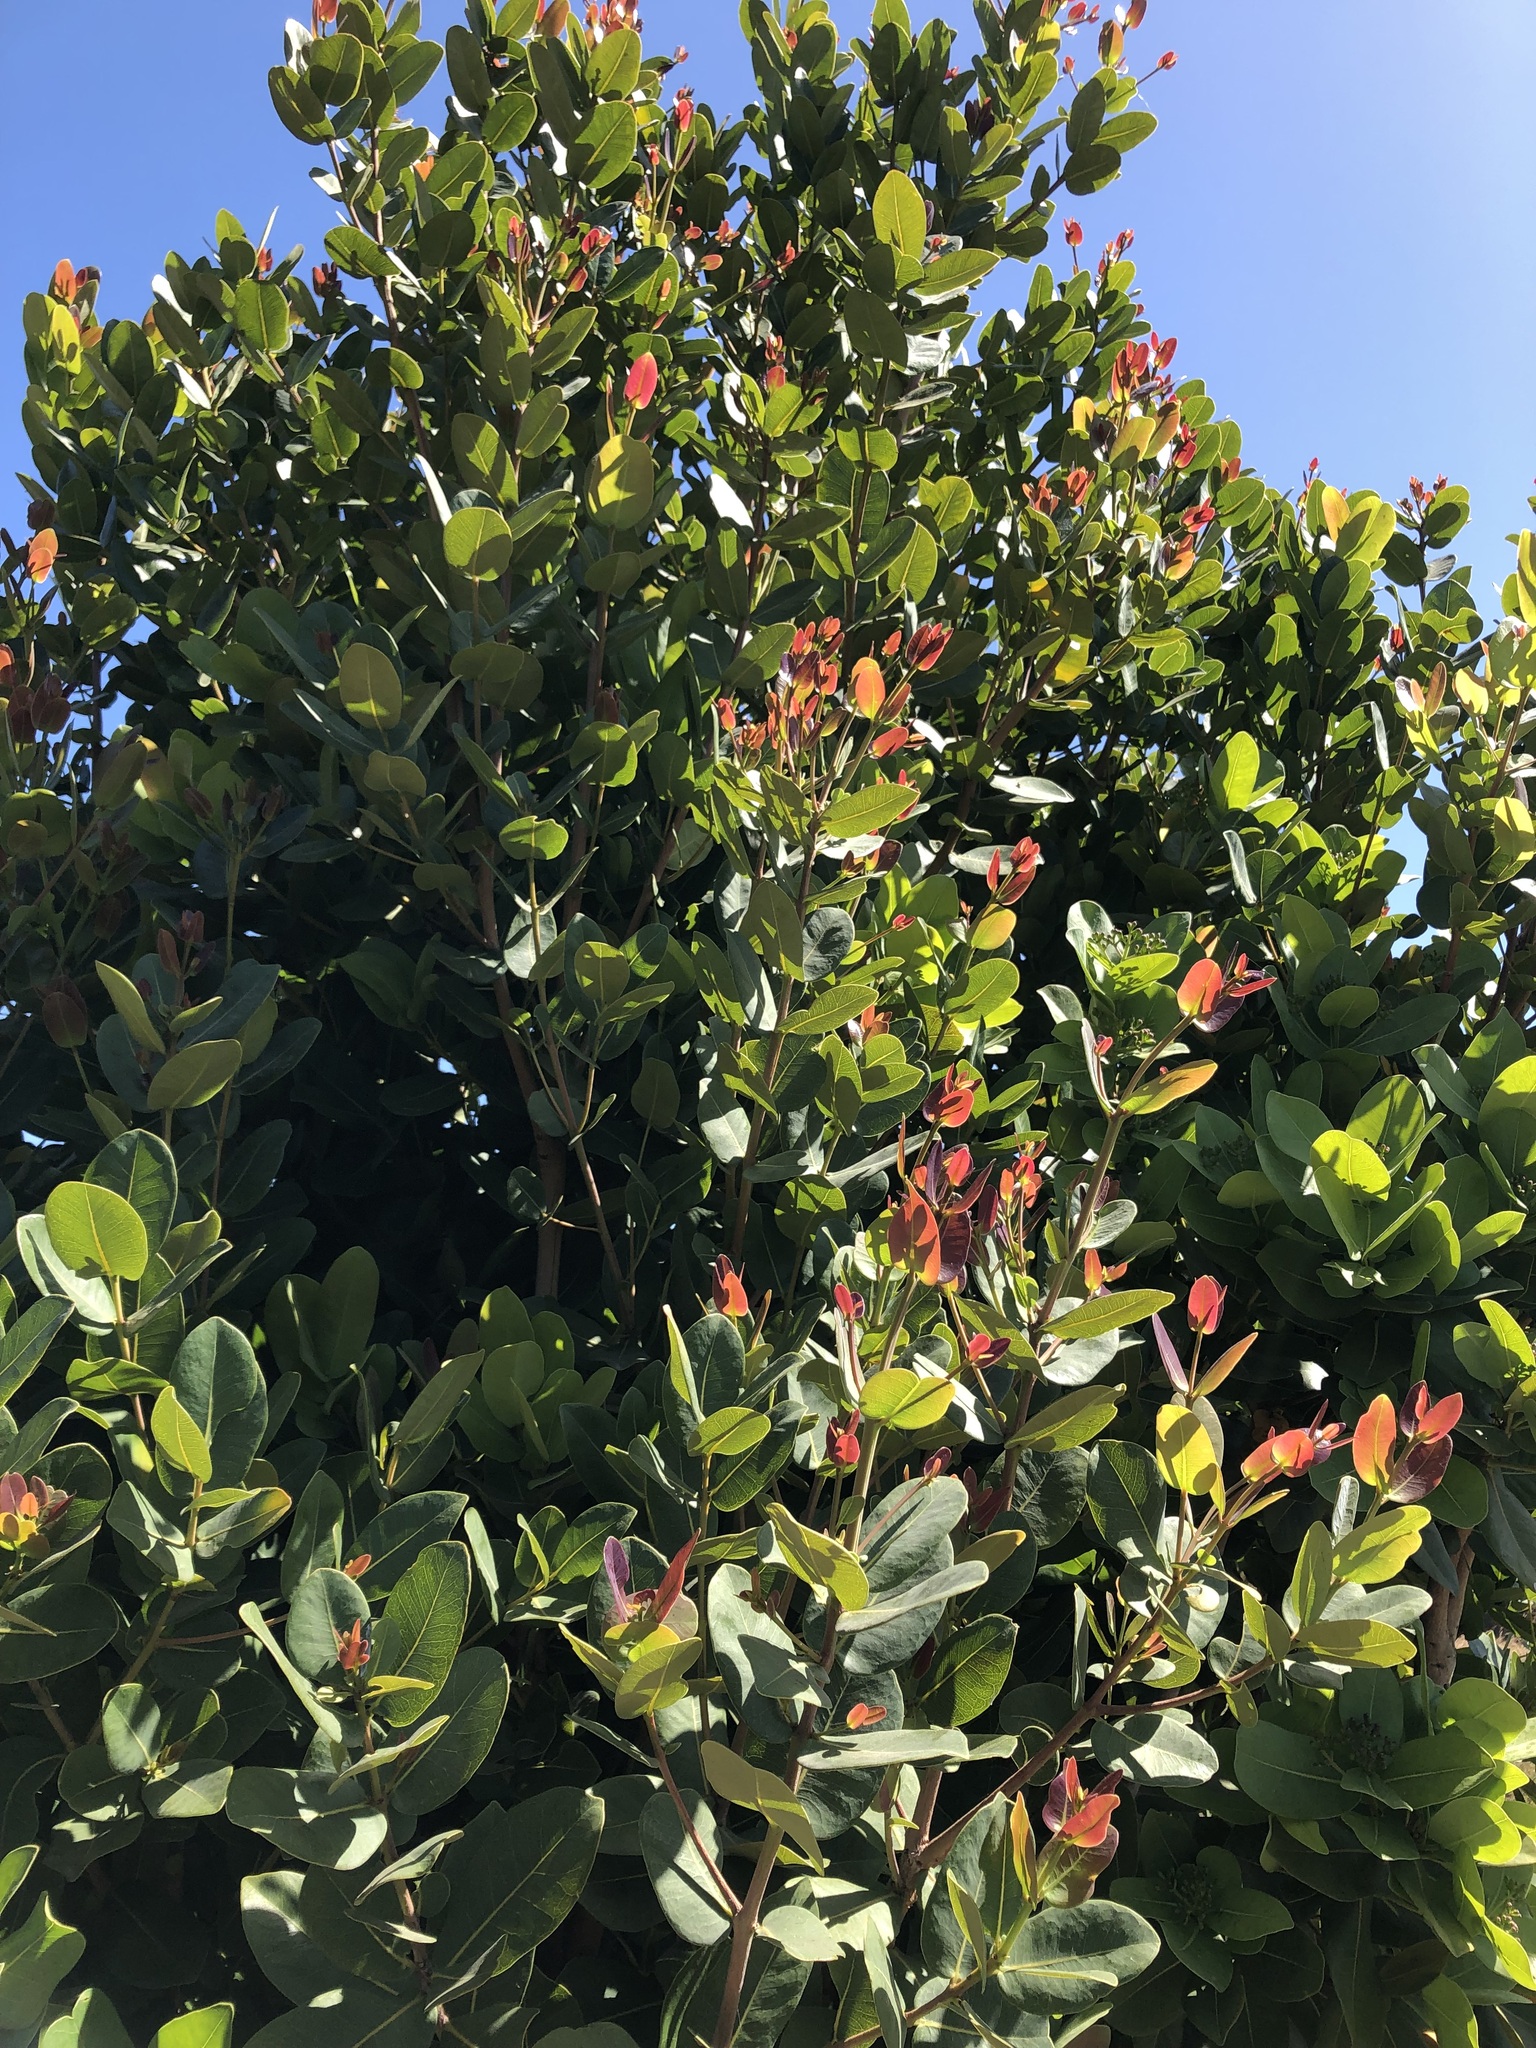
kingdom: Plantae
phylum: Tracheophyta
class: Magnoliopsida
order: Myrtales
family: Myrtaceae
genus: Syzygium
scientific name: Syzygium cordatum
